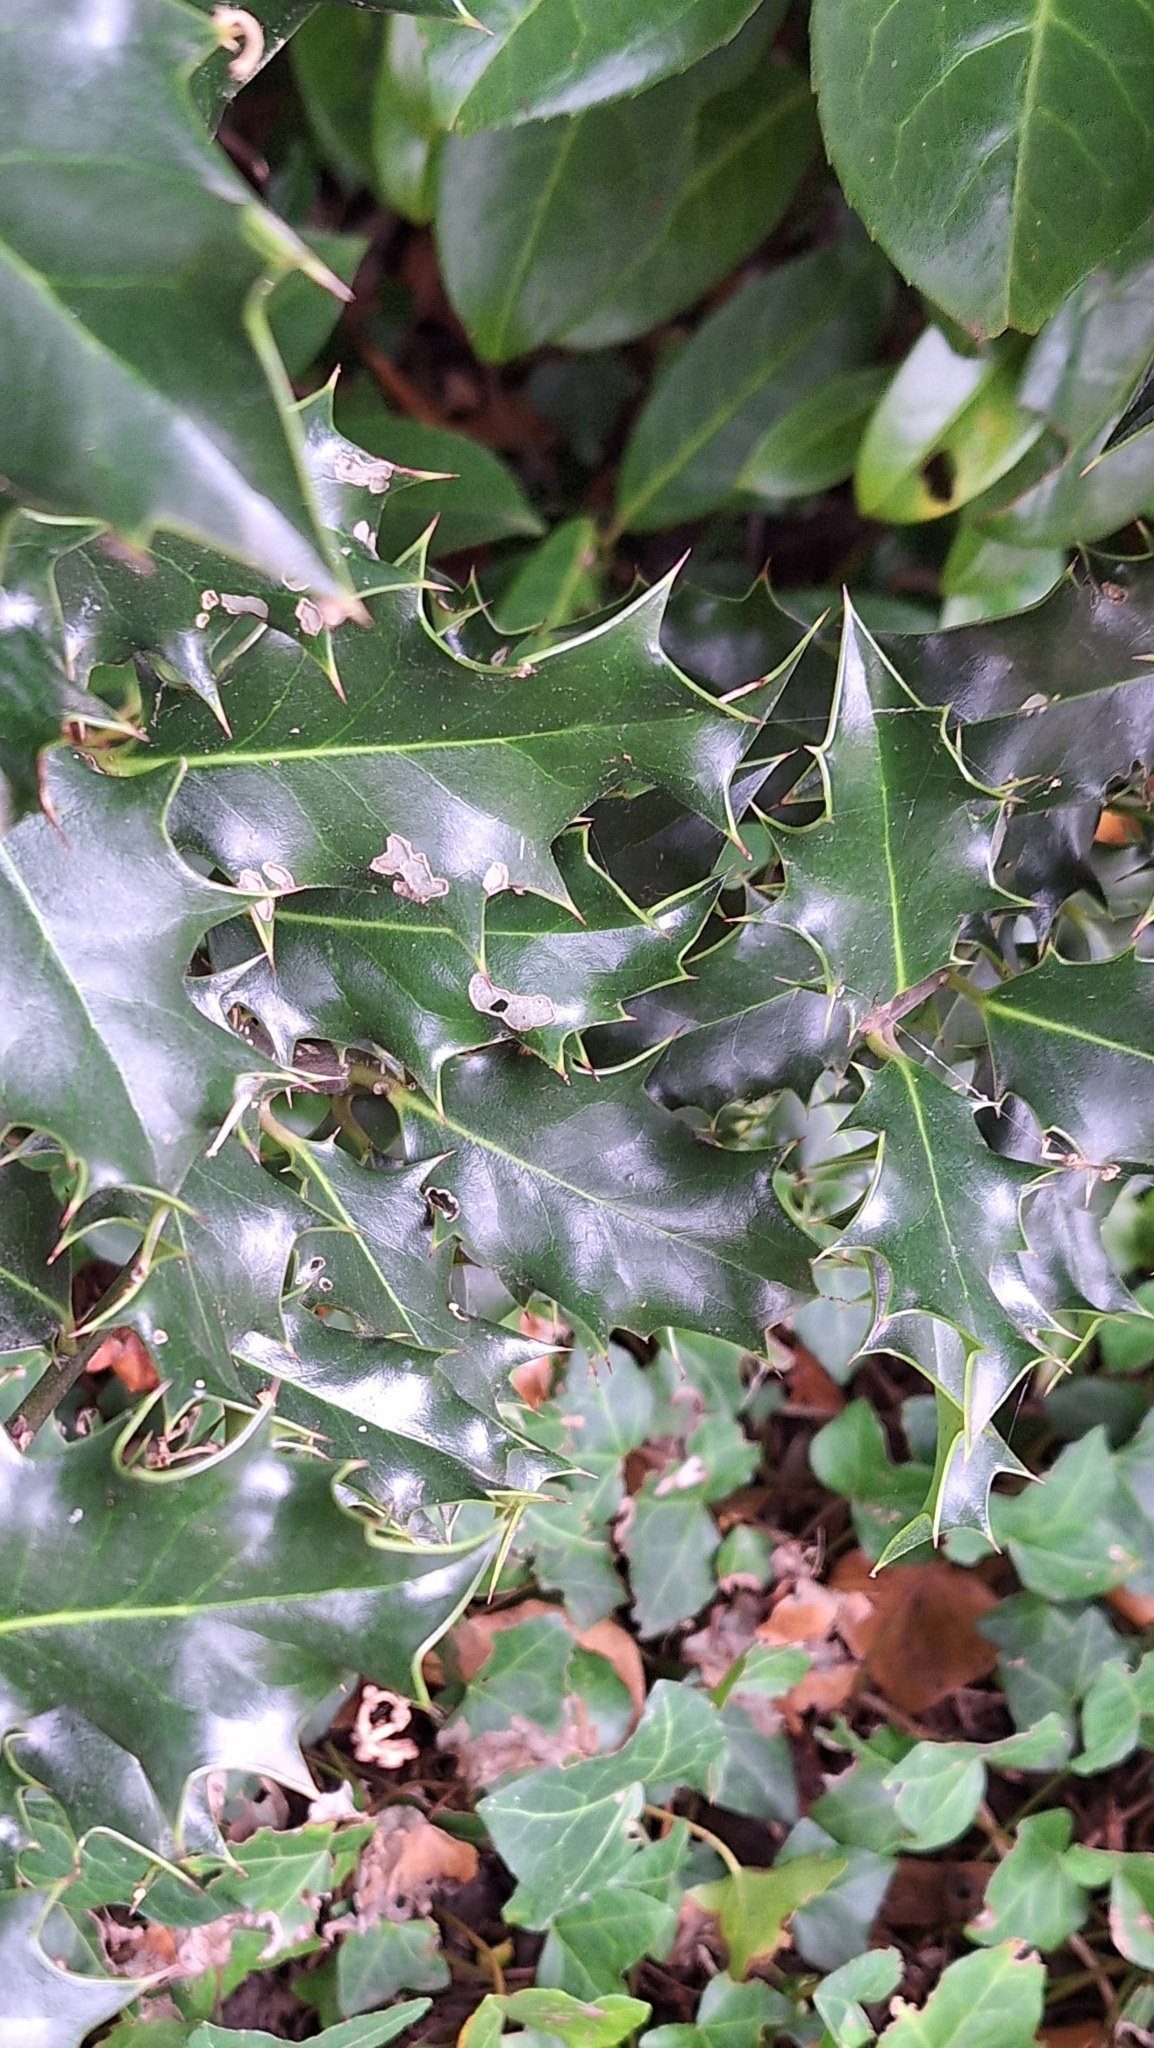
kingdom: Plantae
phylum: Tracheophyta
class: Magnoliopsida
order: Aquifoliales
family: Aquifoliaceae
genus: Ilex
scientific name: Ilex aquifolium
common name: English holly
